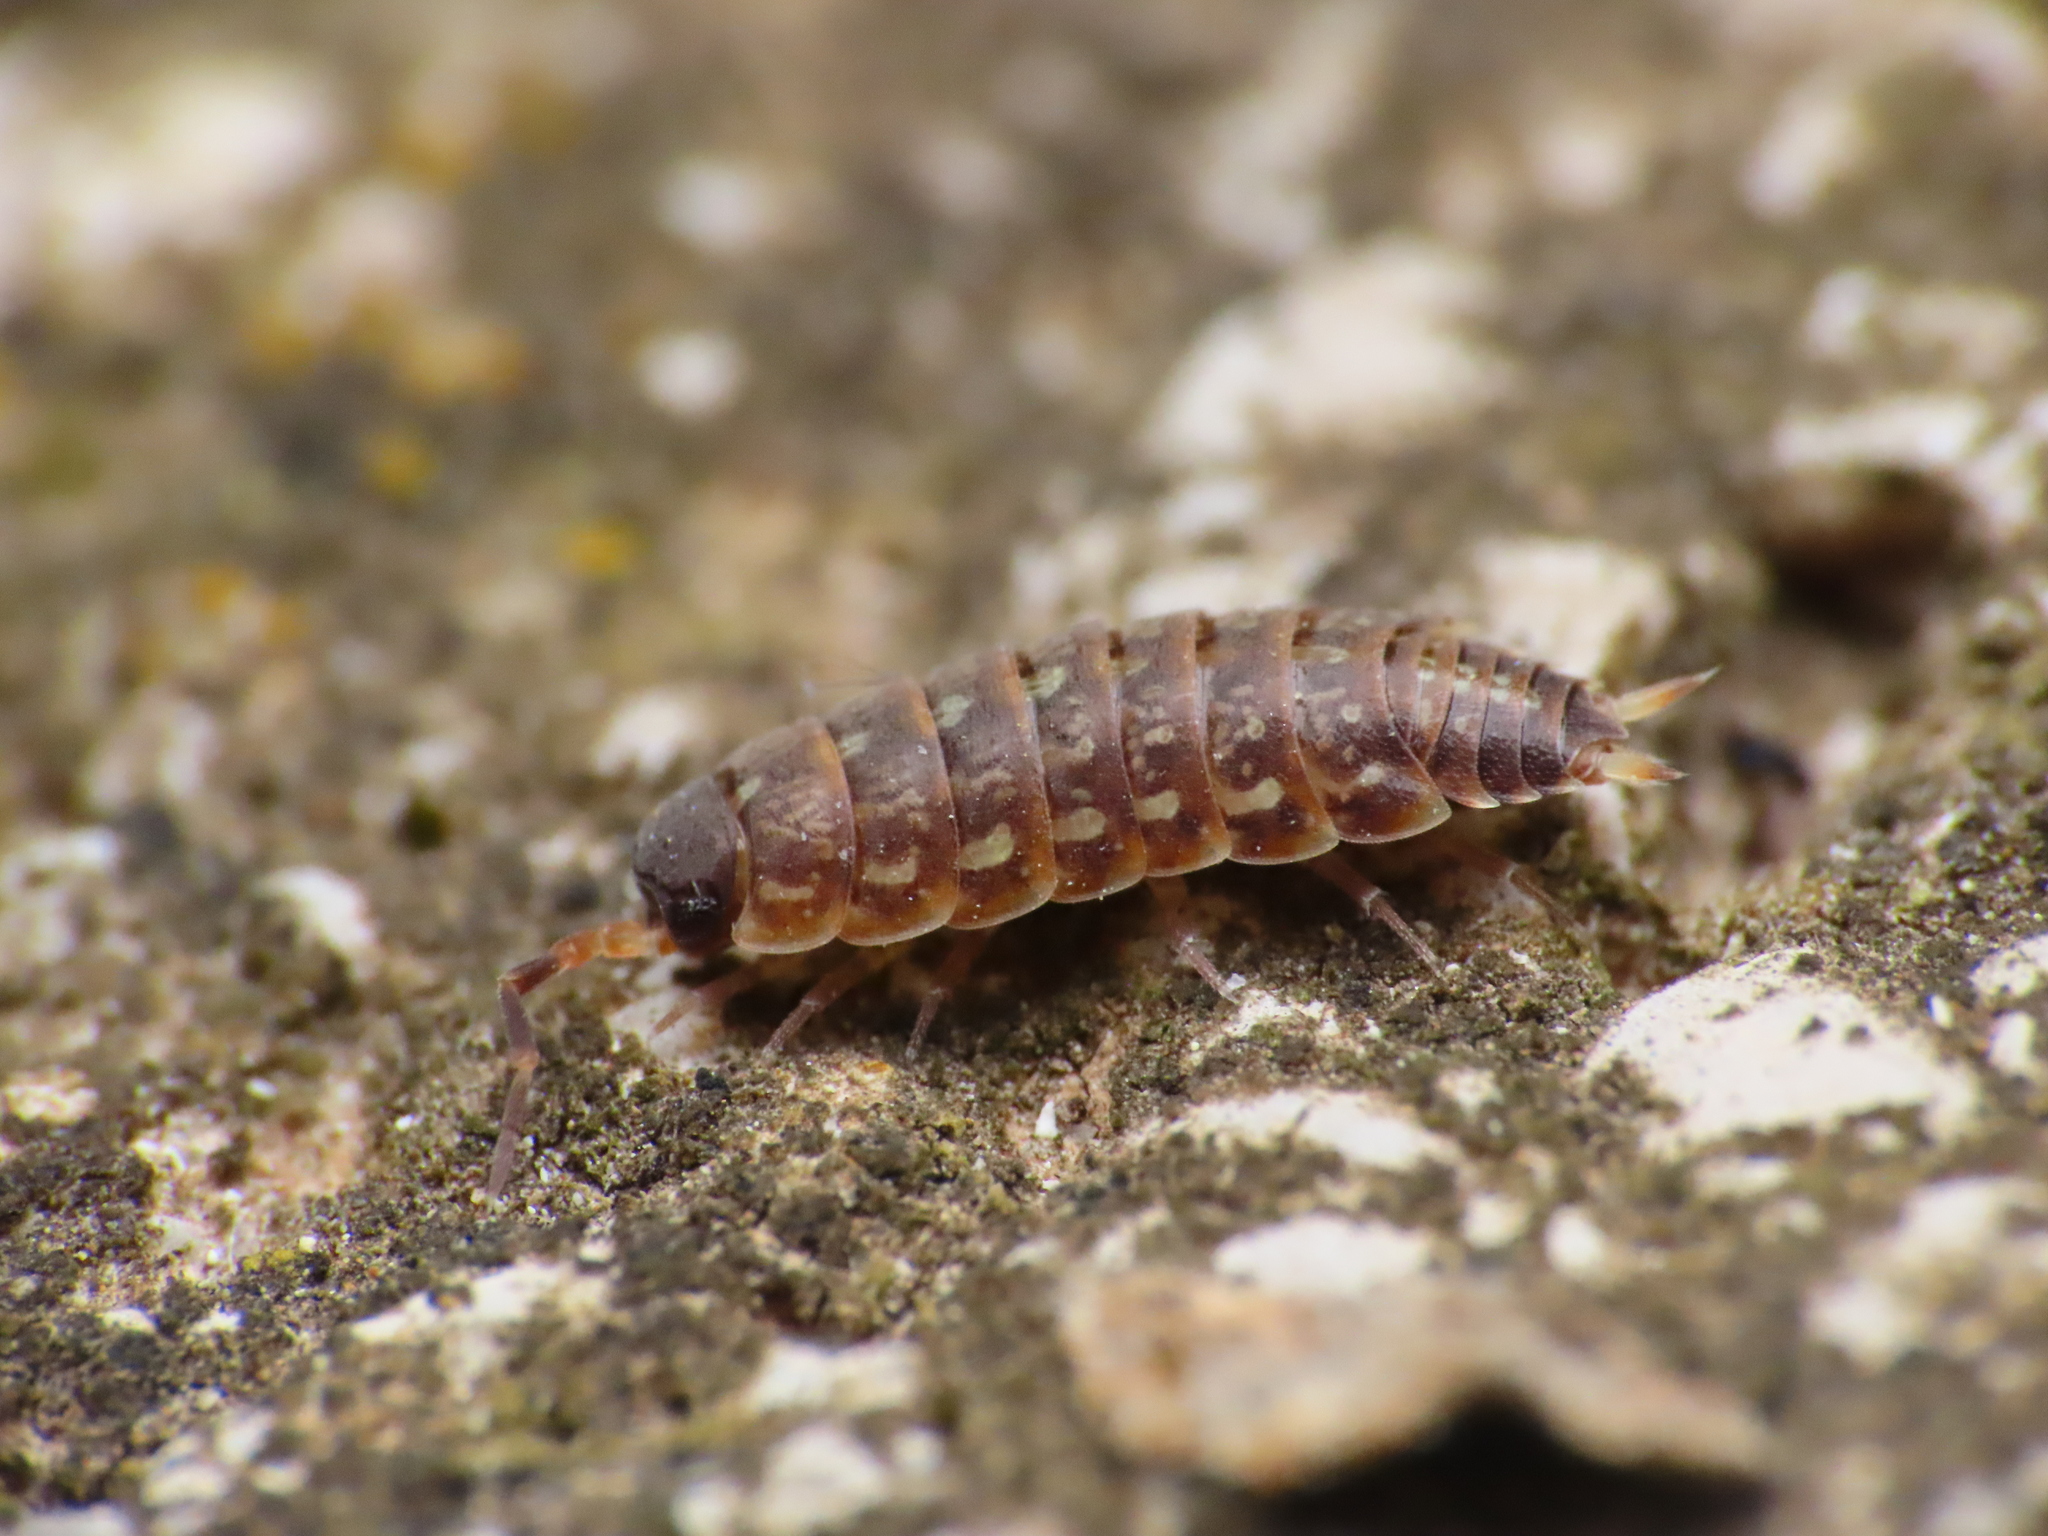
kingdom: Animalia
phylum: Arthropoda
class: Malacostraca
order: Isopoda
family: Porcellionidae
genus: Porcellionides
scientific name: Porcellionides aternanus
